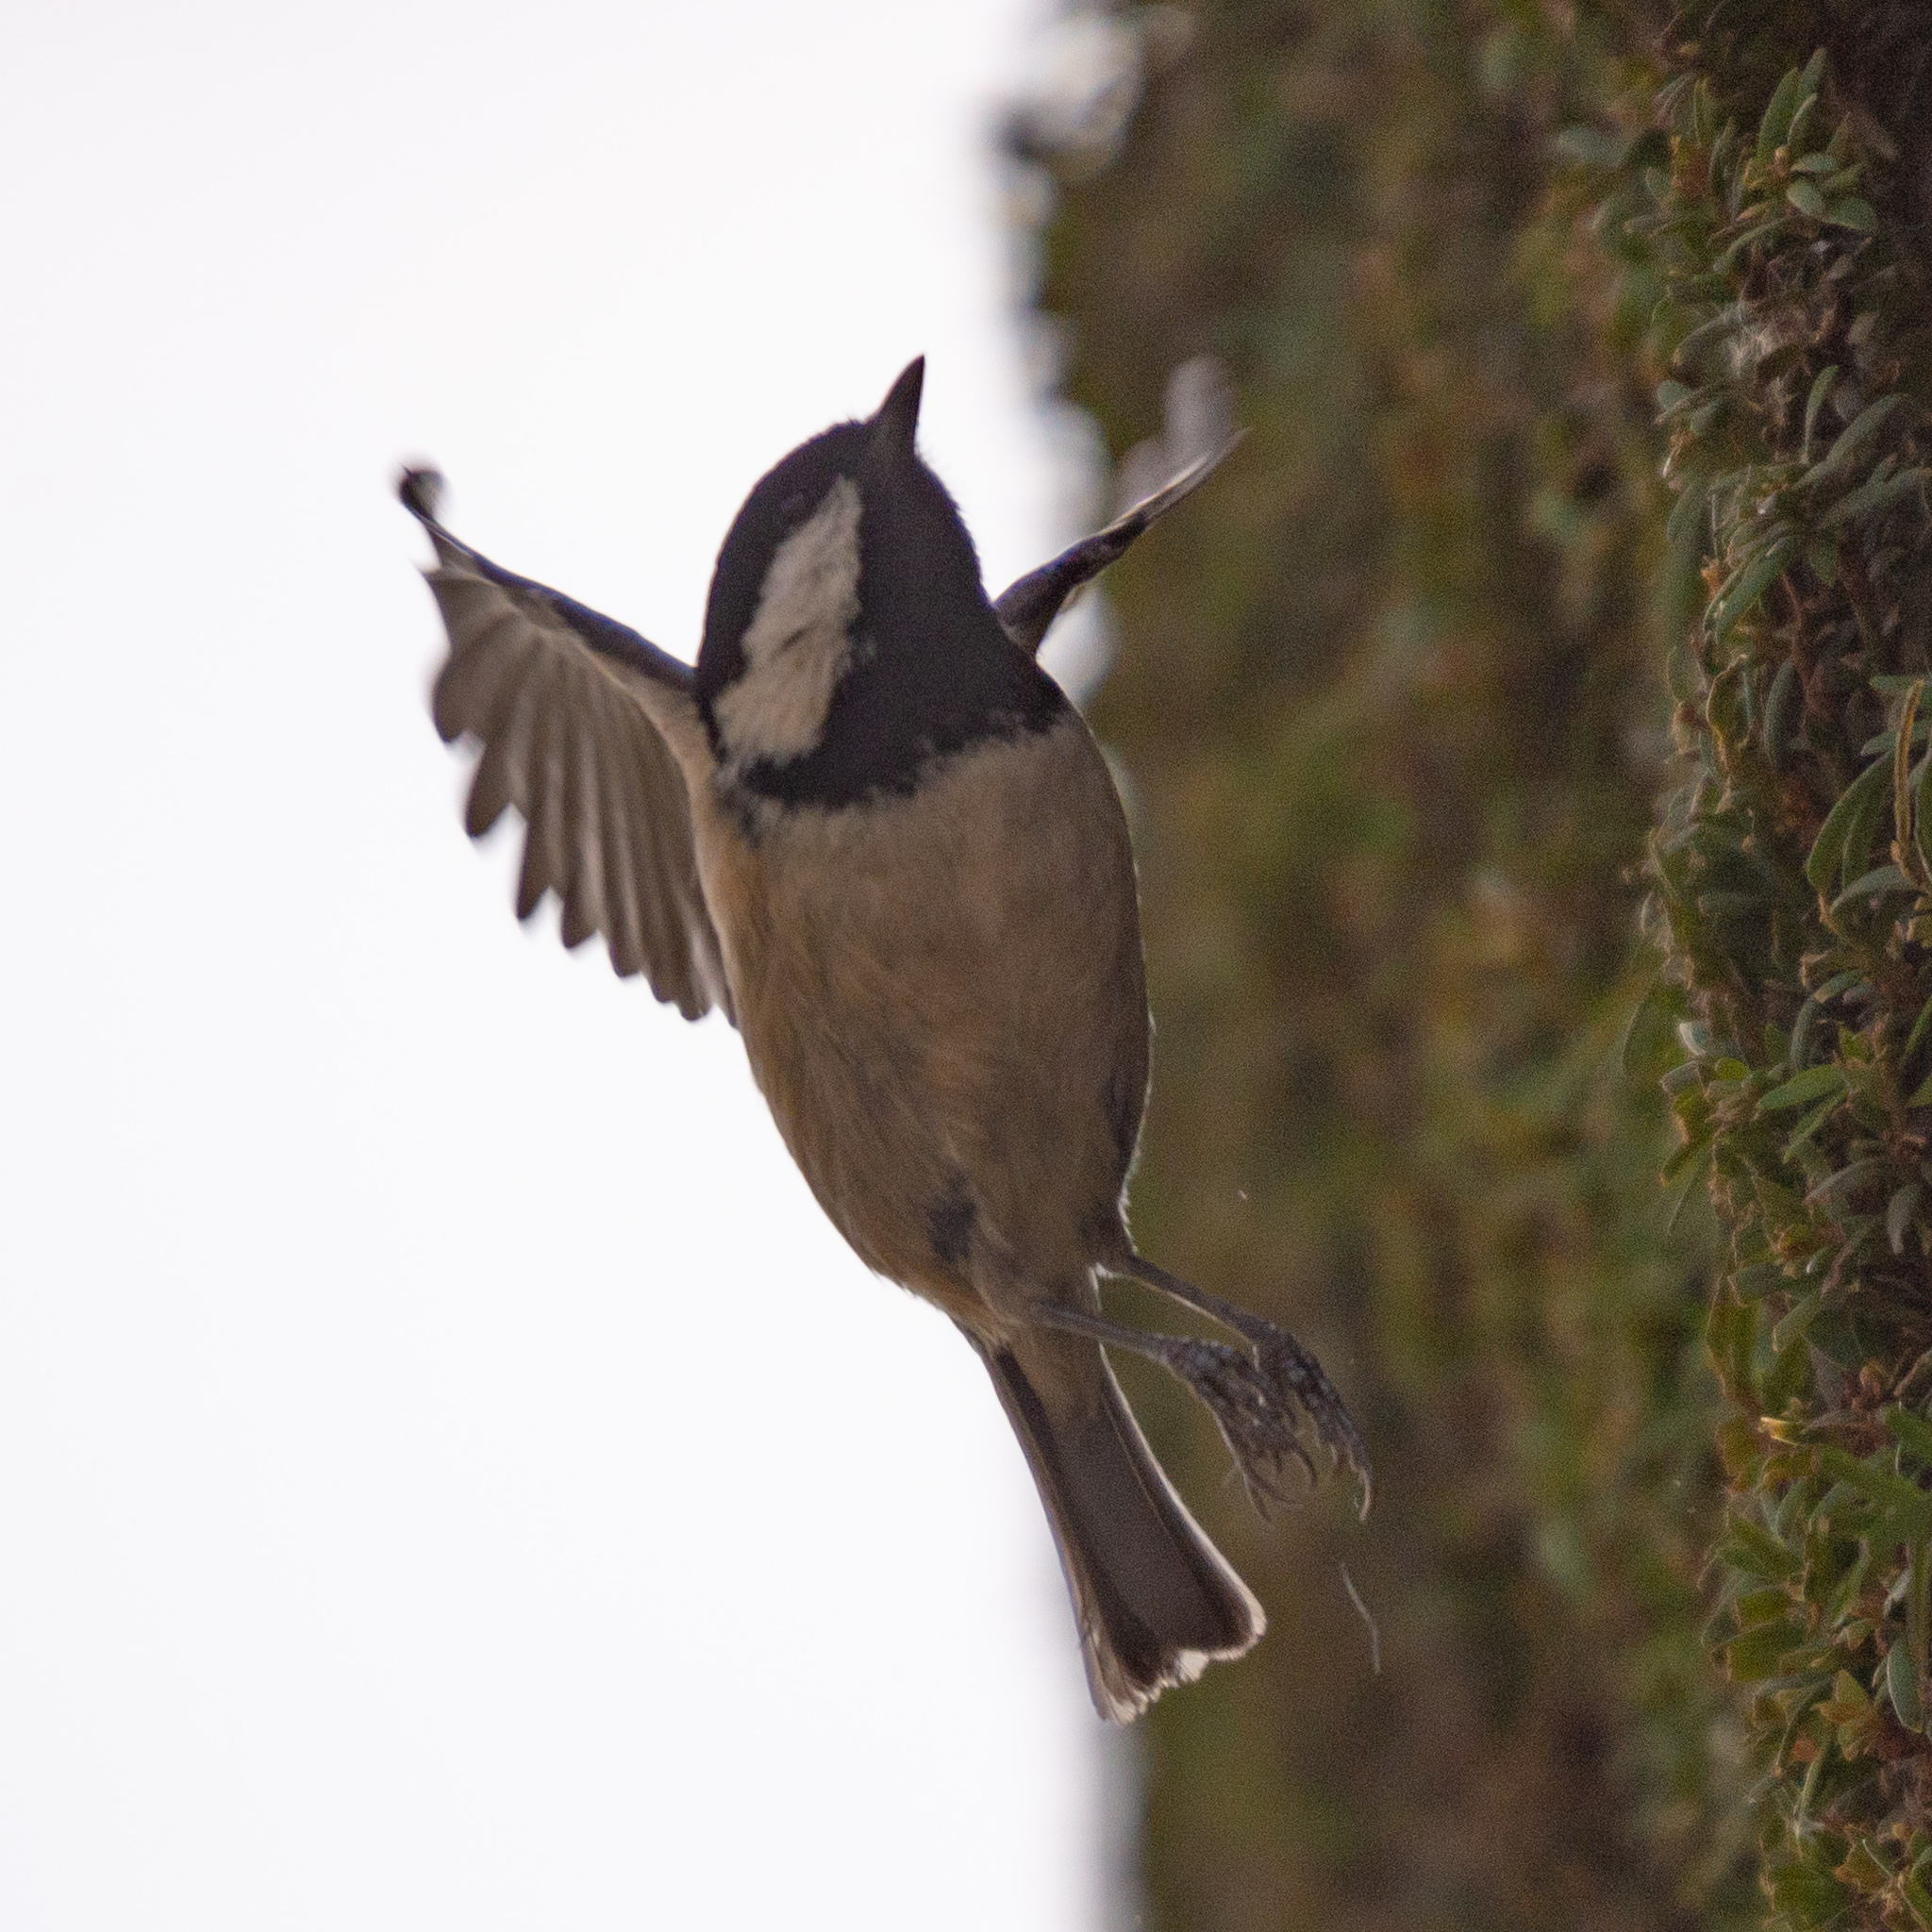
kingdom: Animalia
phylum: Chordata
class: Aves
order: Passeriformes
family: Paridae
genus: Periparus
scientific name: Periparus ater
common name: Coal tit
